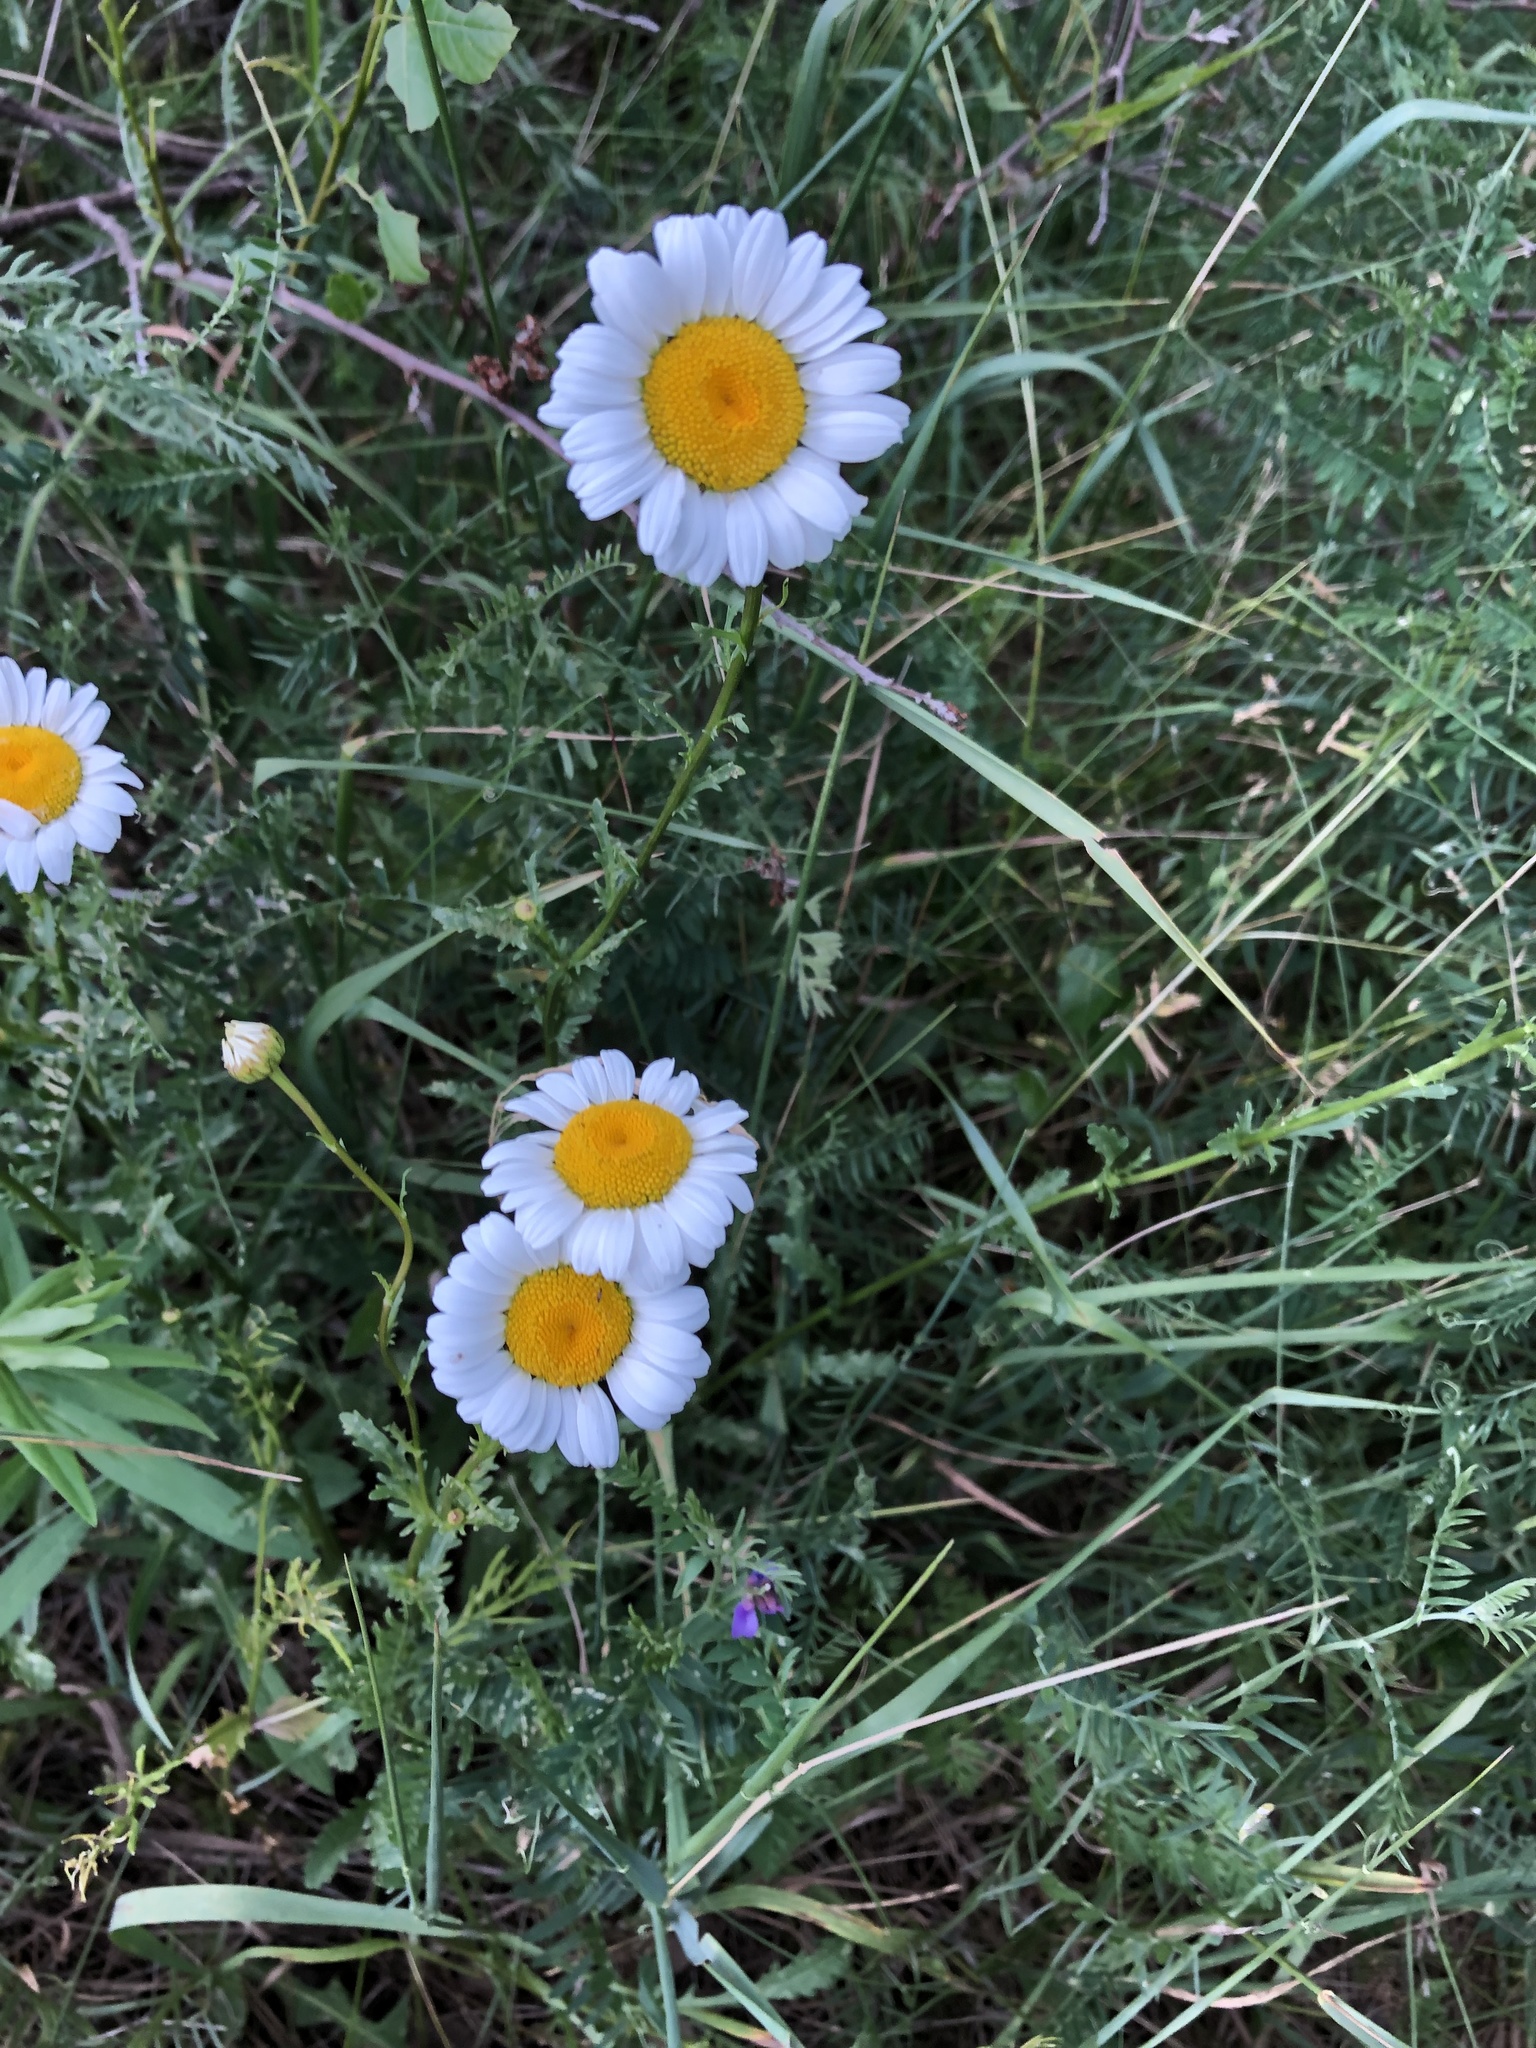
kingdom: Plantae
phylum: Tracheophyta
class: Magnoliopsida
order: Asterales
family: Asteraceae
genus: Leucanthemum
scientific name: Leucanthemum vulgare
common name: Oxeye daisy
